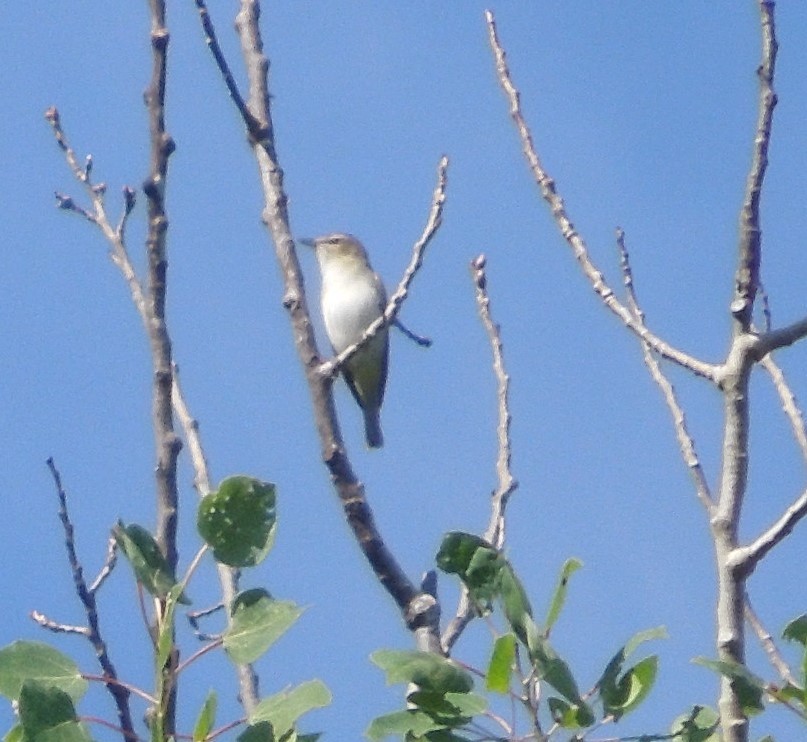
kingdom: Animalia
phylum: Chordata
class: Aves
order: Passeriformes
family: Vireonidae
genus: Vireo
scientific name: Vireo olivaceus
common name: Red-eyed vireo
